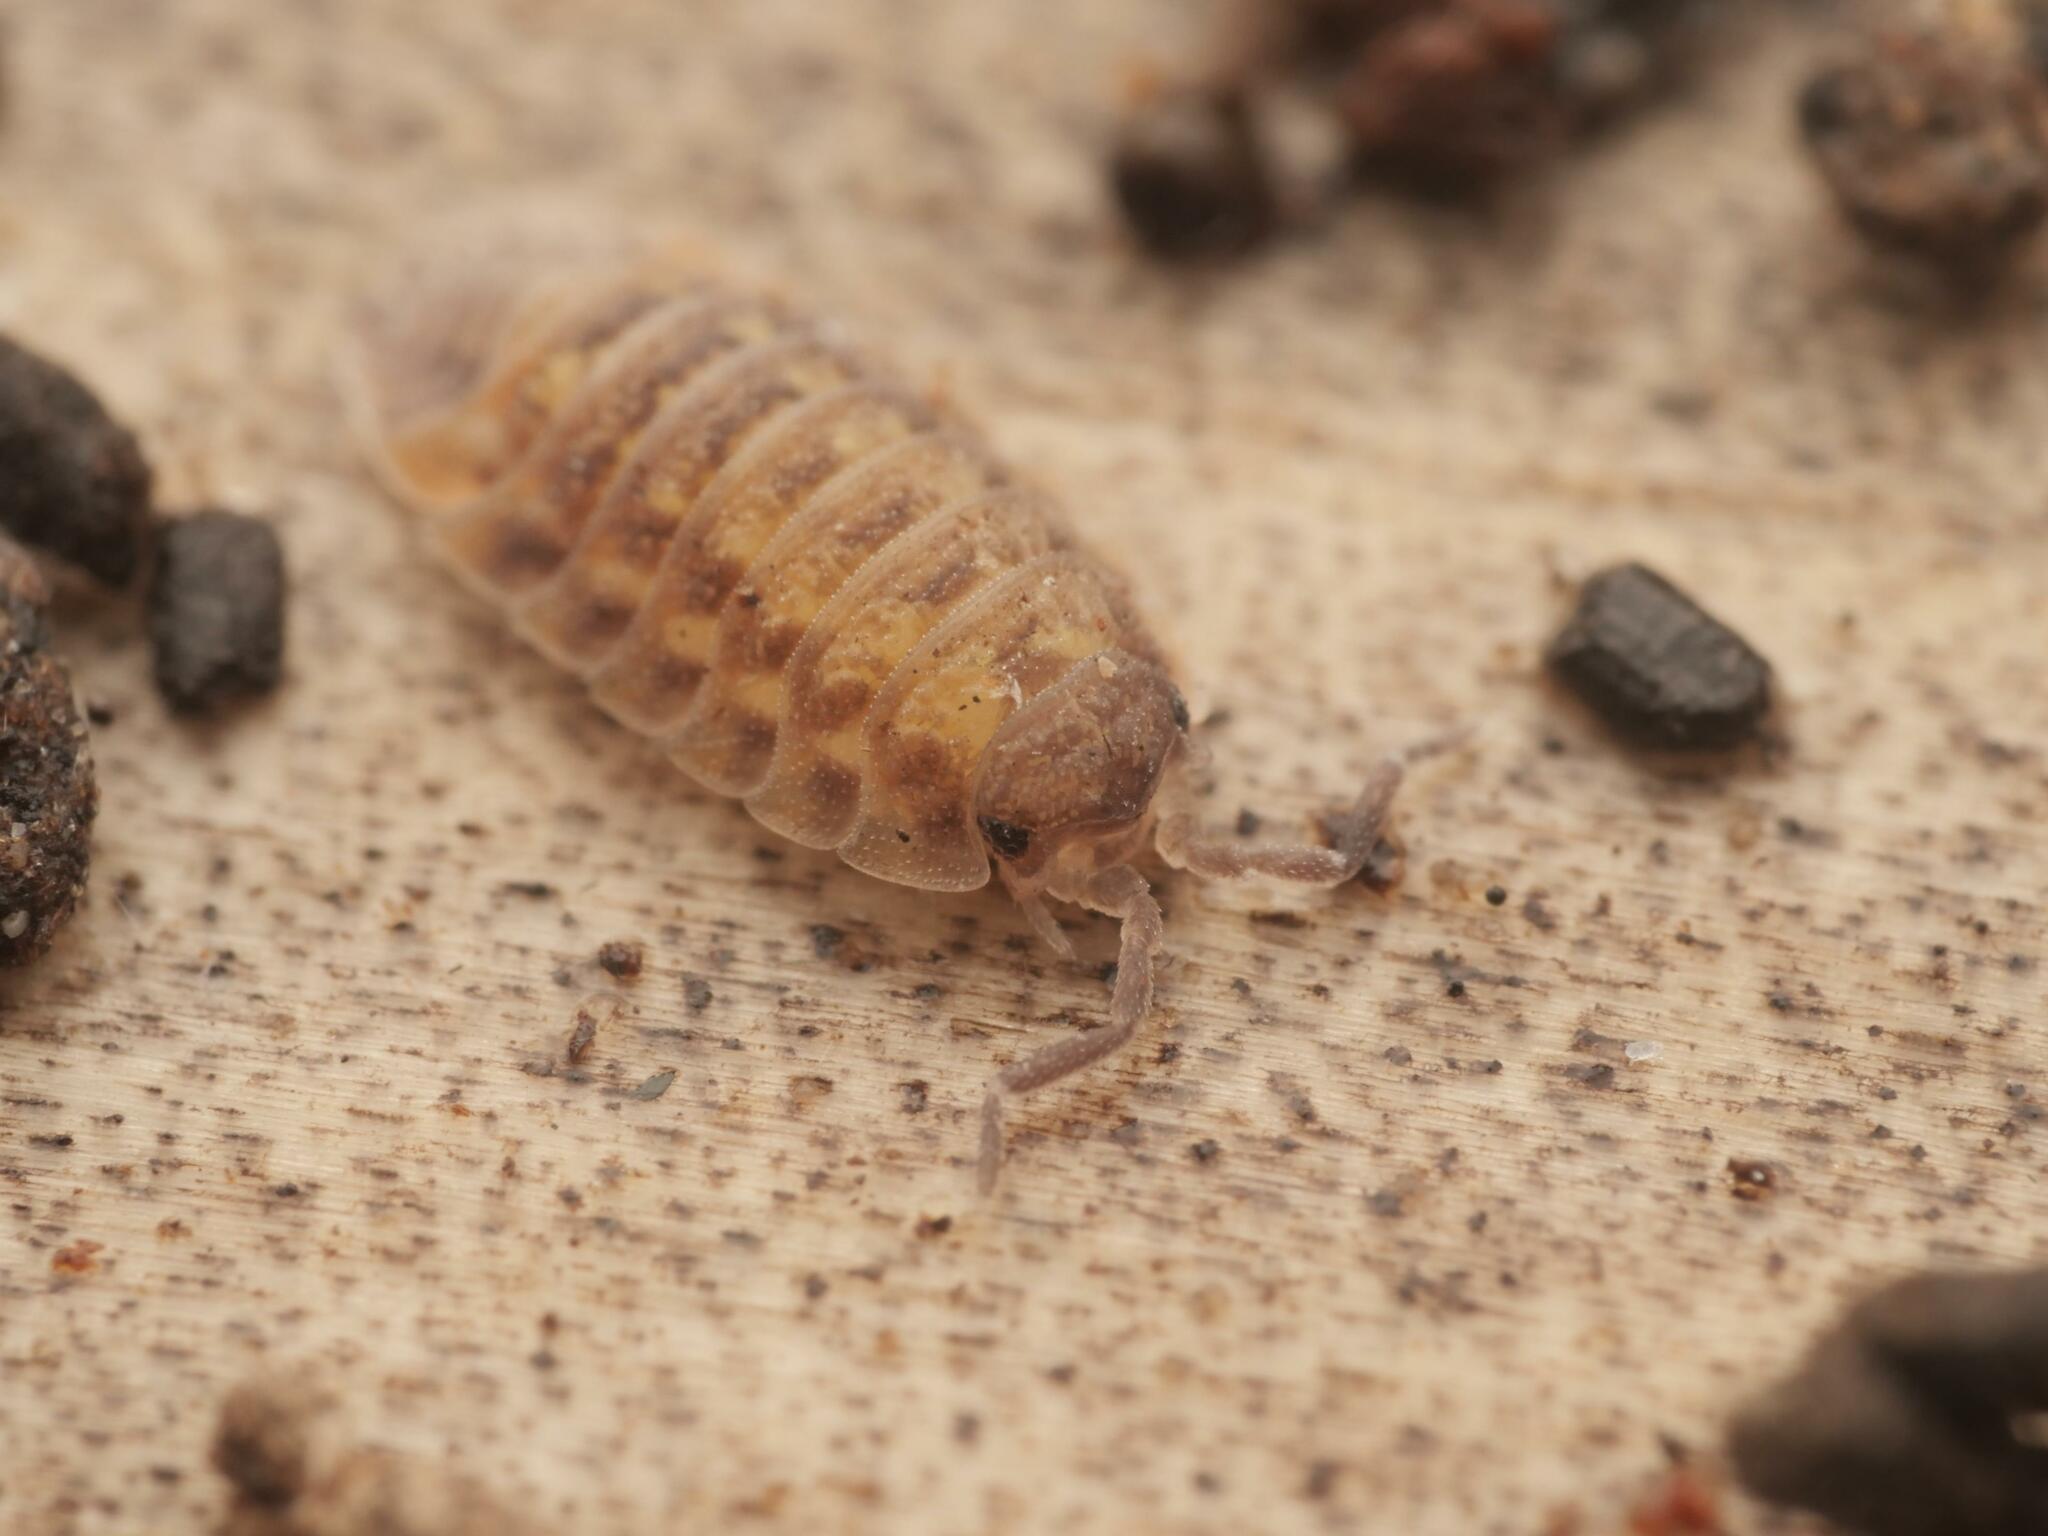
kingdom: Animalia
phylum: Arthropoda
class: Malacostraca
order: Isopoda
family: Oniscidae
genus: Oniscus
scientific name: Oniscus asellus
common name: Common shiny woodlouse
